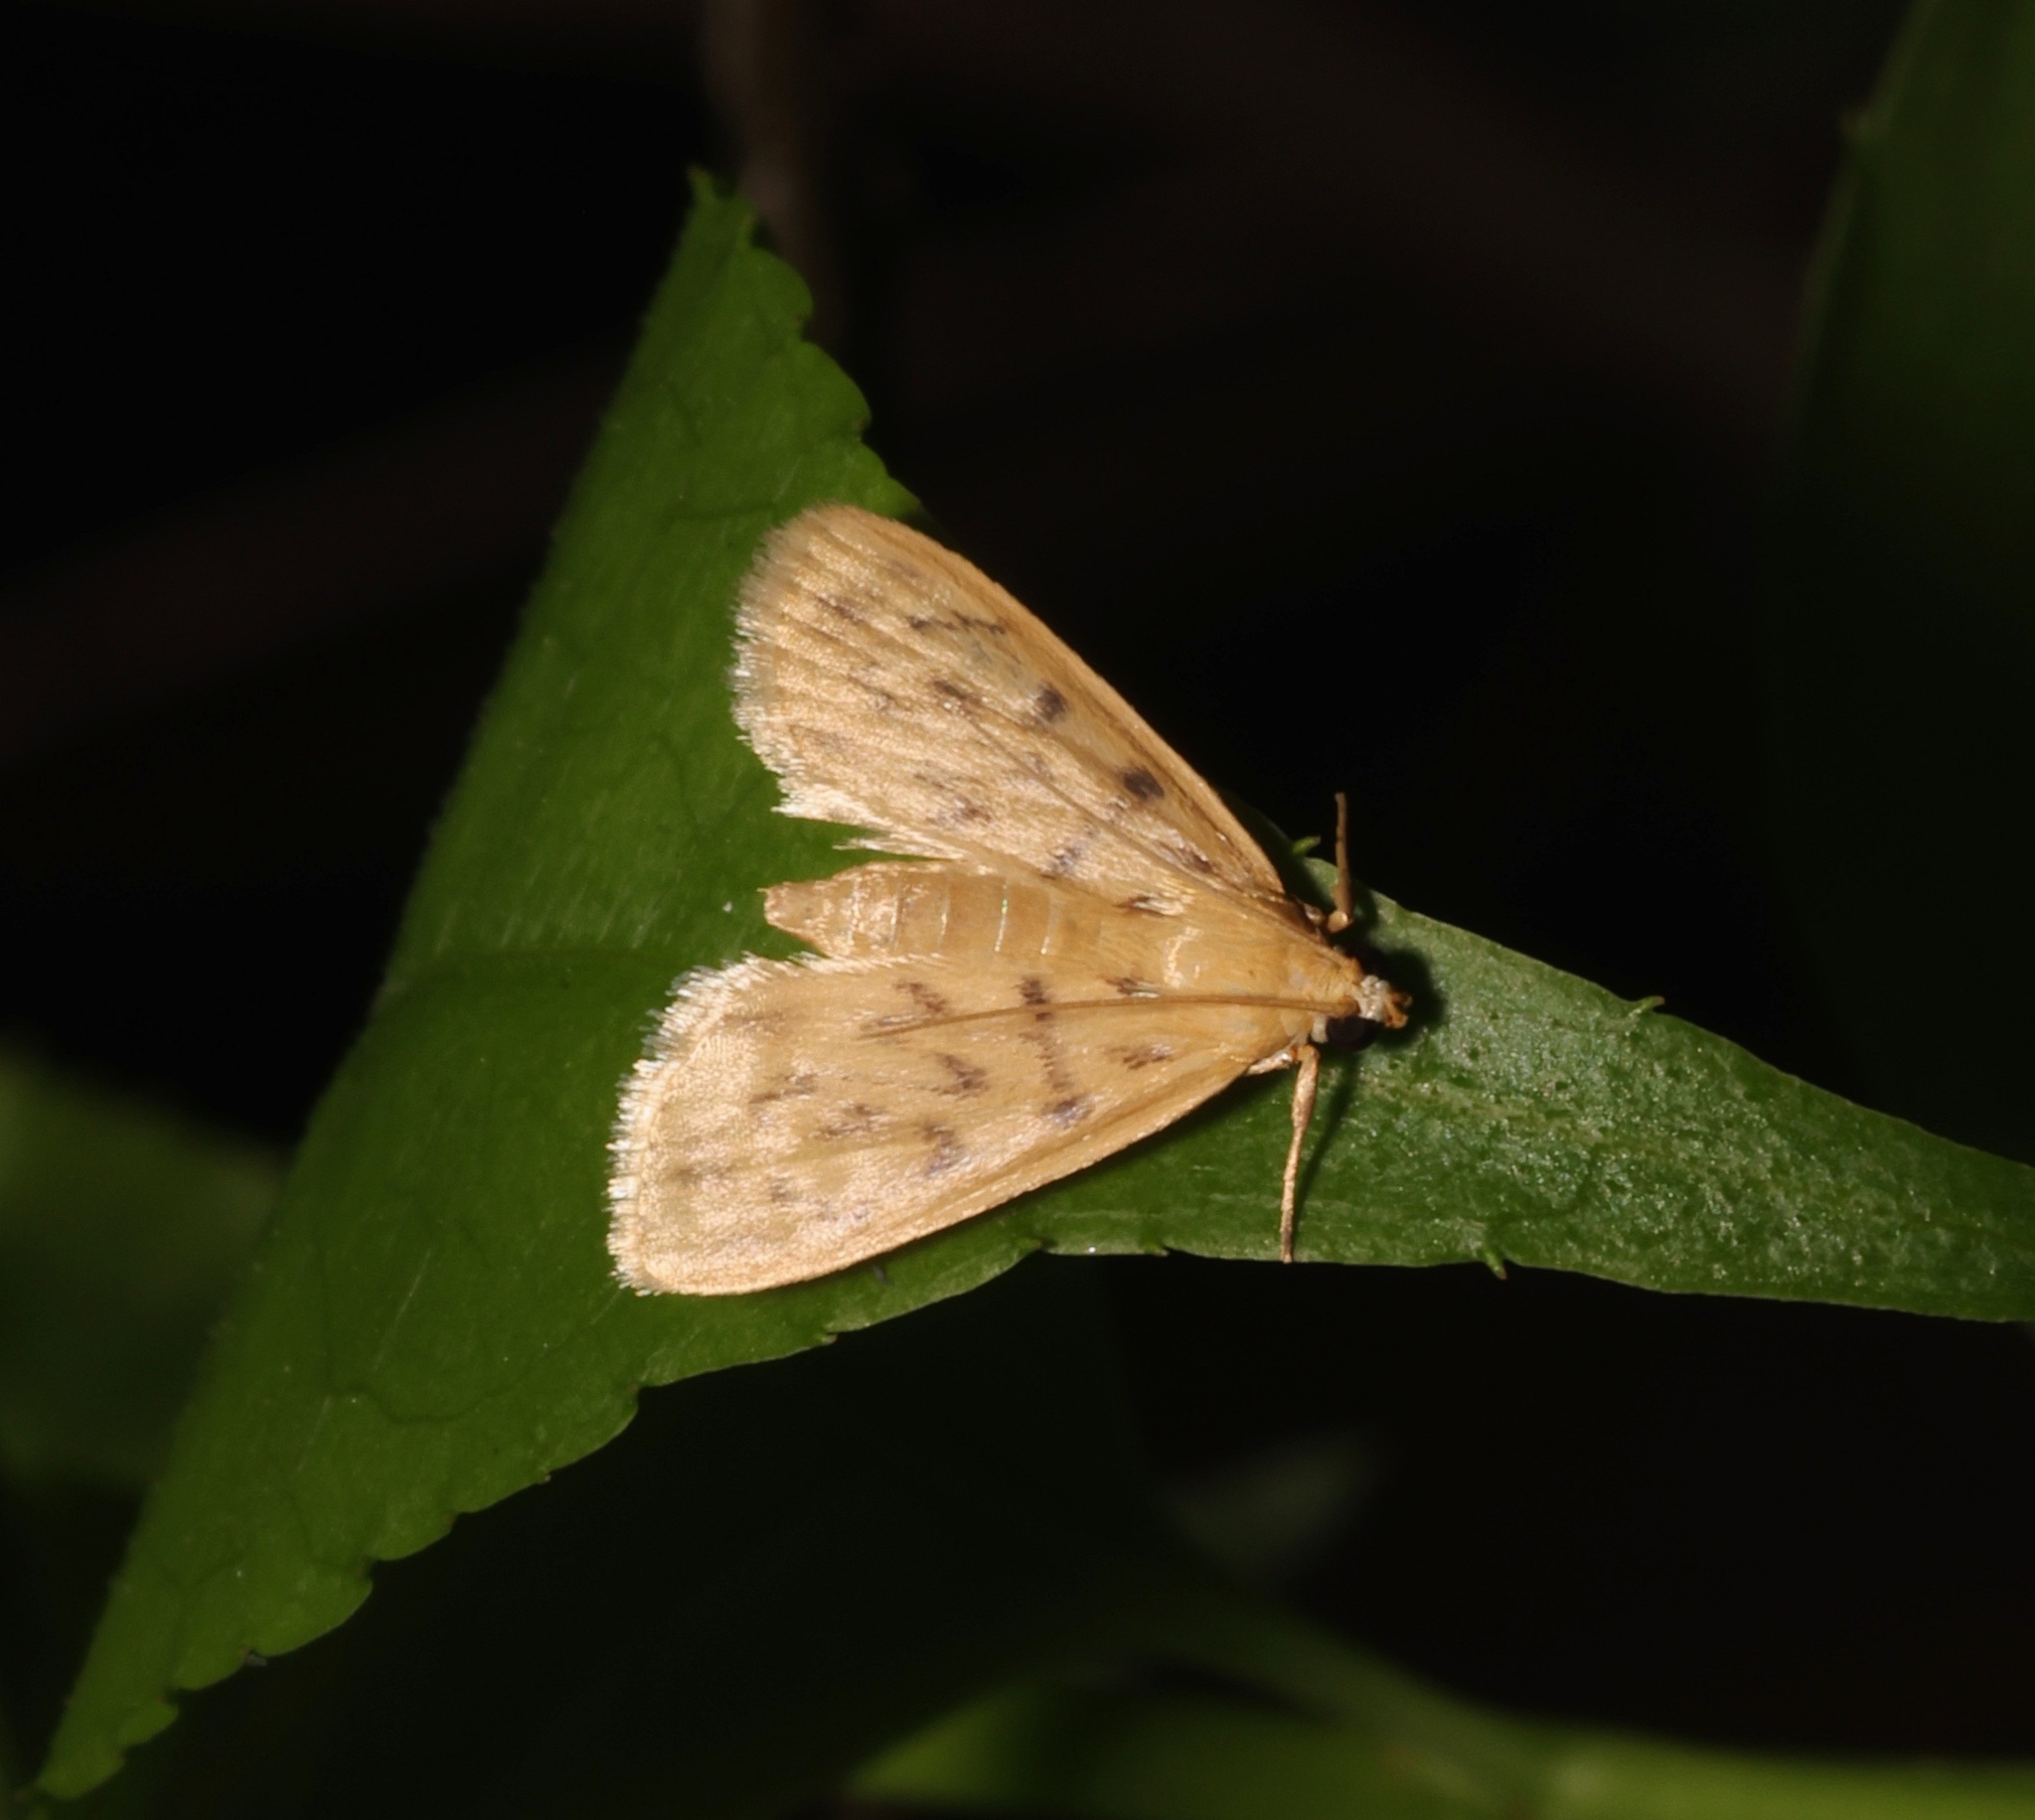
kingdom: Animalia
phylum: Arthropoda
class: Insecta
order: Lepidoptera
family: Crambidae
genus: Tabidia
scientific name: Tabidia
